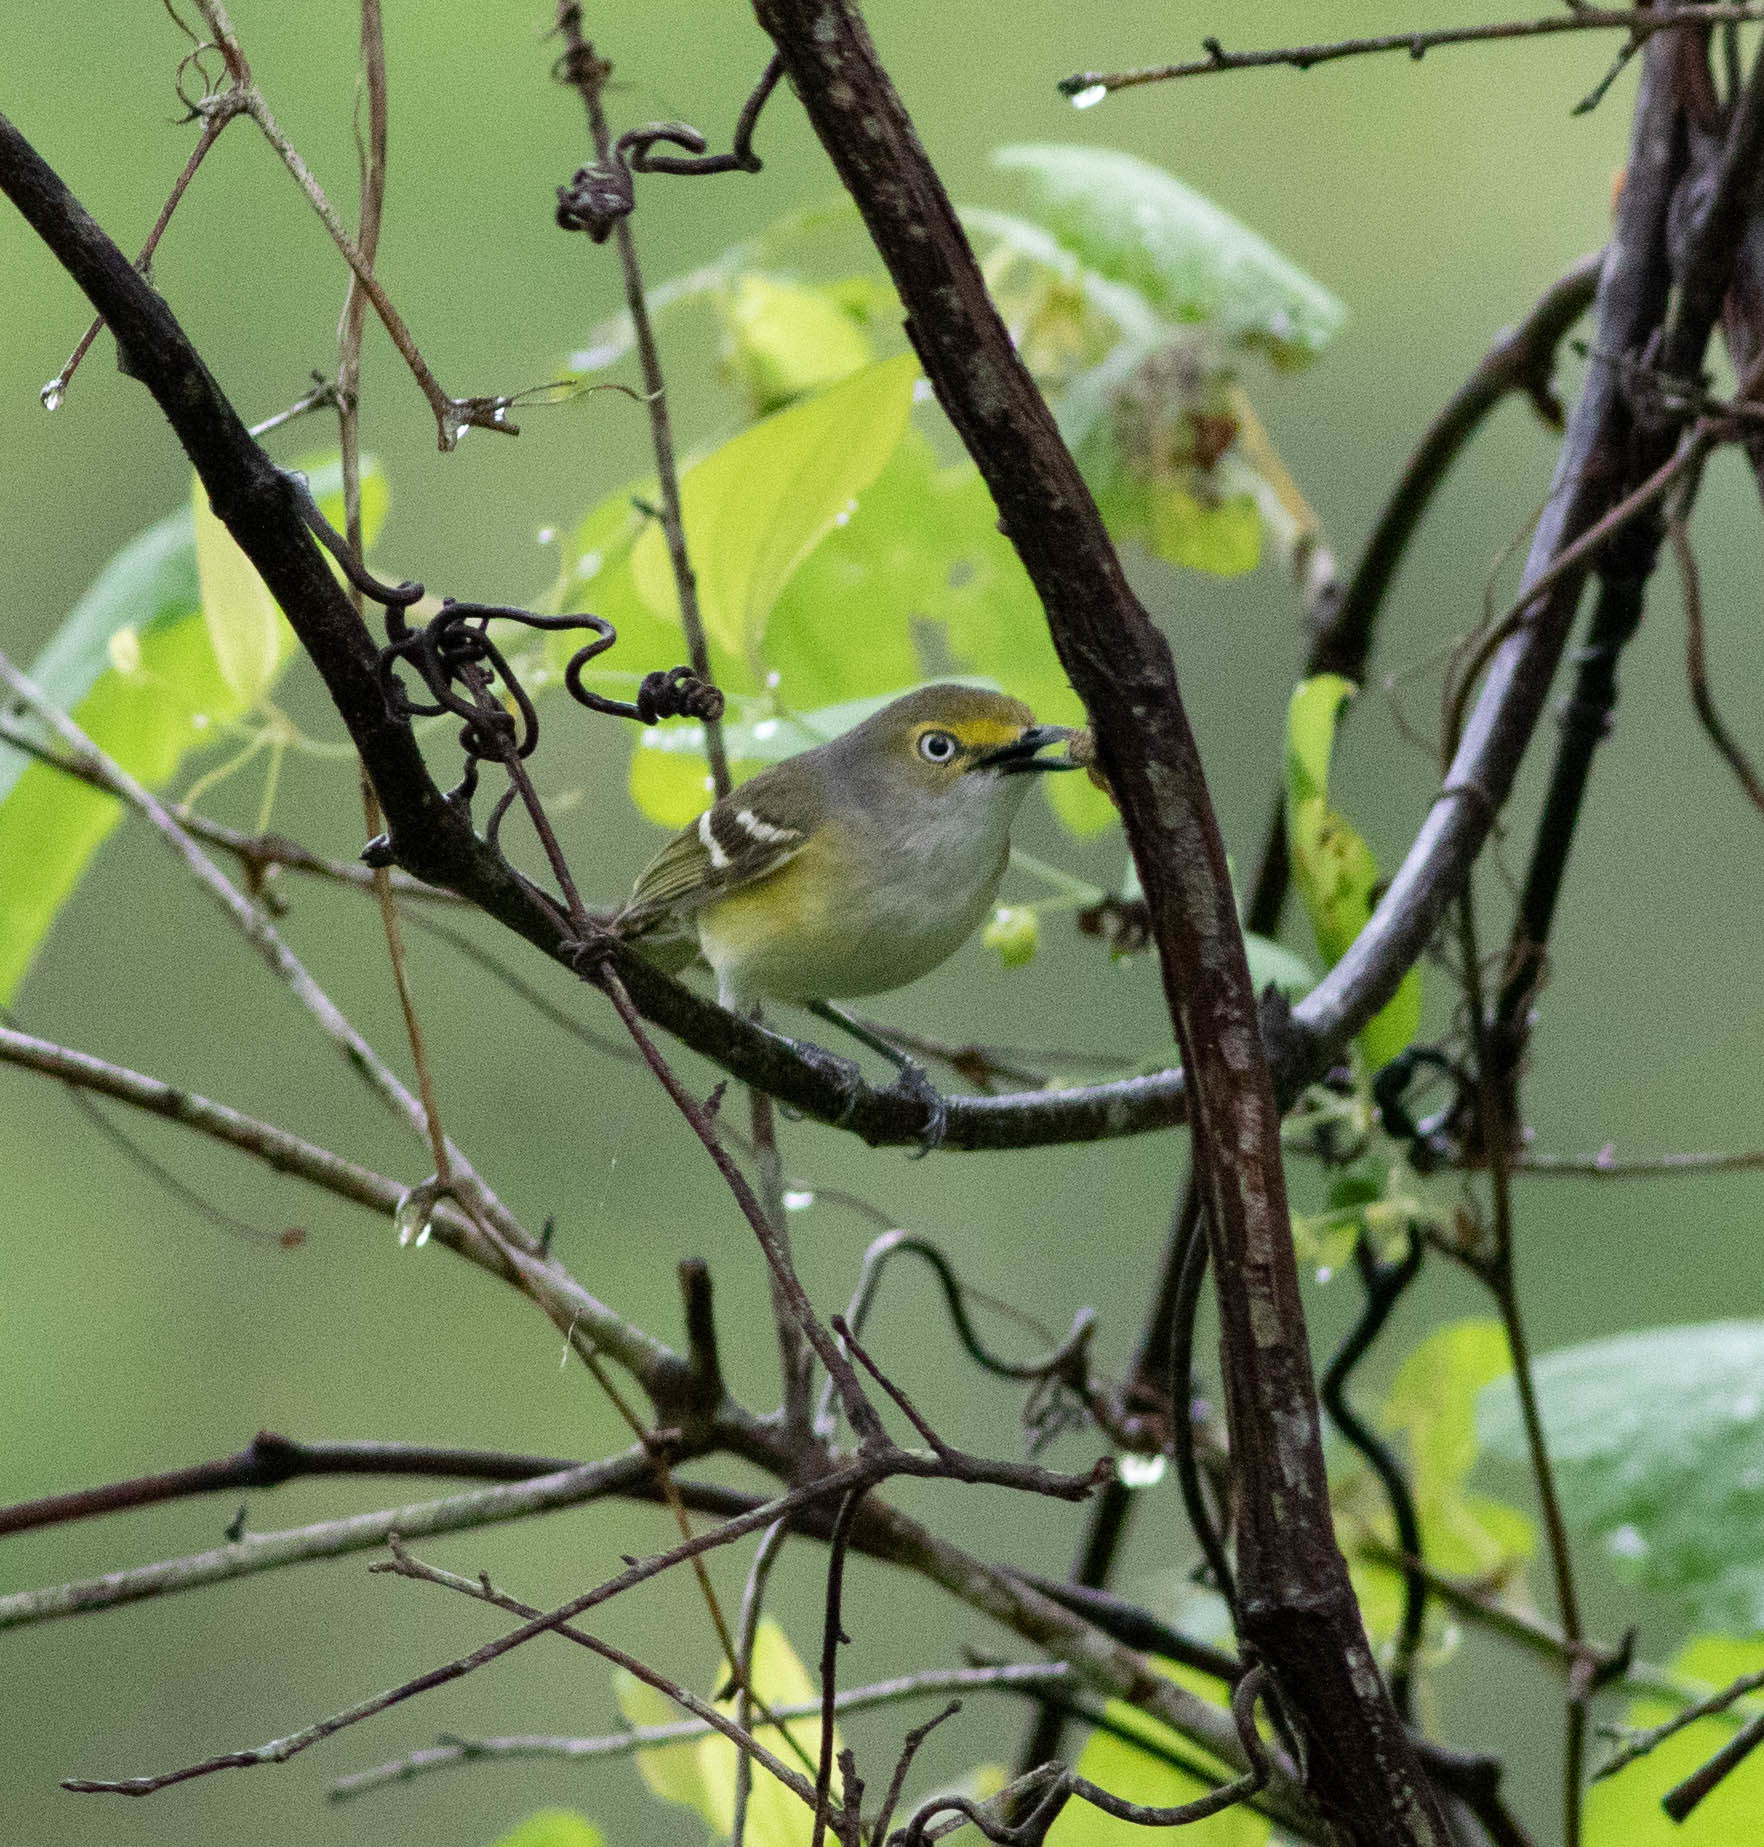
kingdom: Animalia
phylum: Chordata
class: Aves
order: Passeriformes
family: Vireonidae
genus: Vireo
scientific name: Vireo griseus
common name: White-eyed vireo
